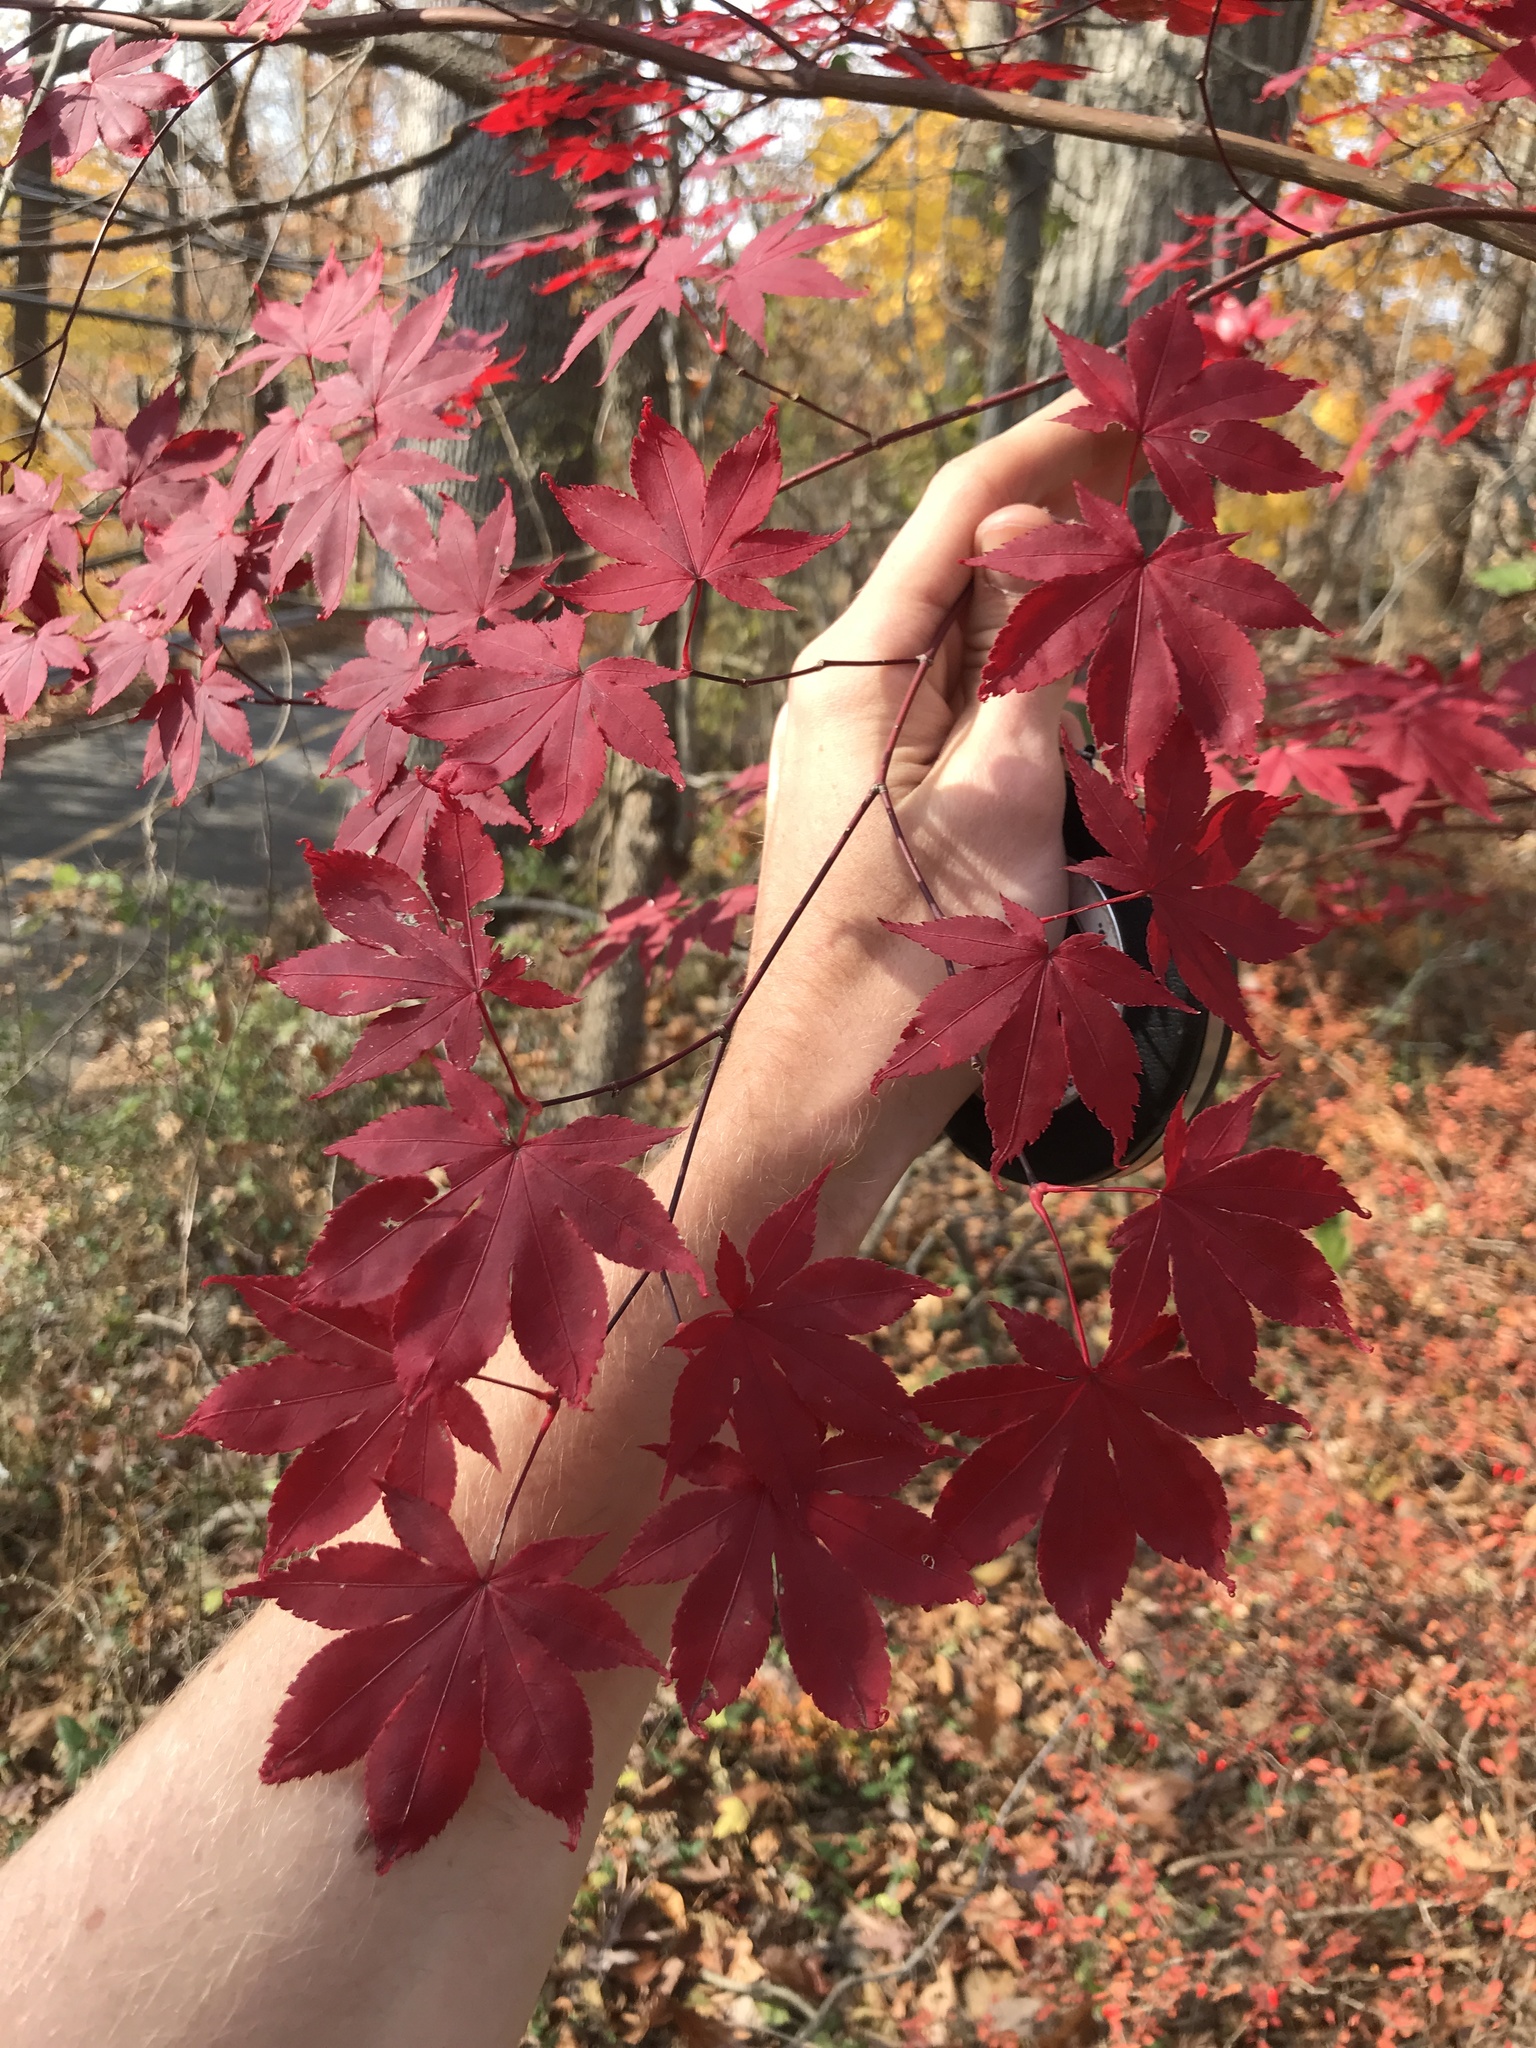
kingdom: Plantae
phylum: Tracheophyta
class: Magnoliopsida
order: Sapindales
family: Sapindaceae
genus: Acer
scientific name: Acer palmatum
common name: Japanese maple
